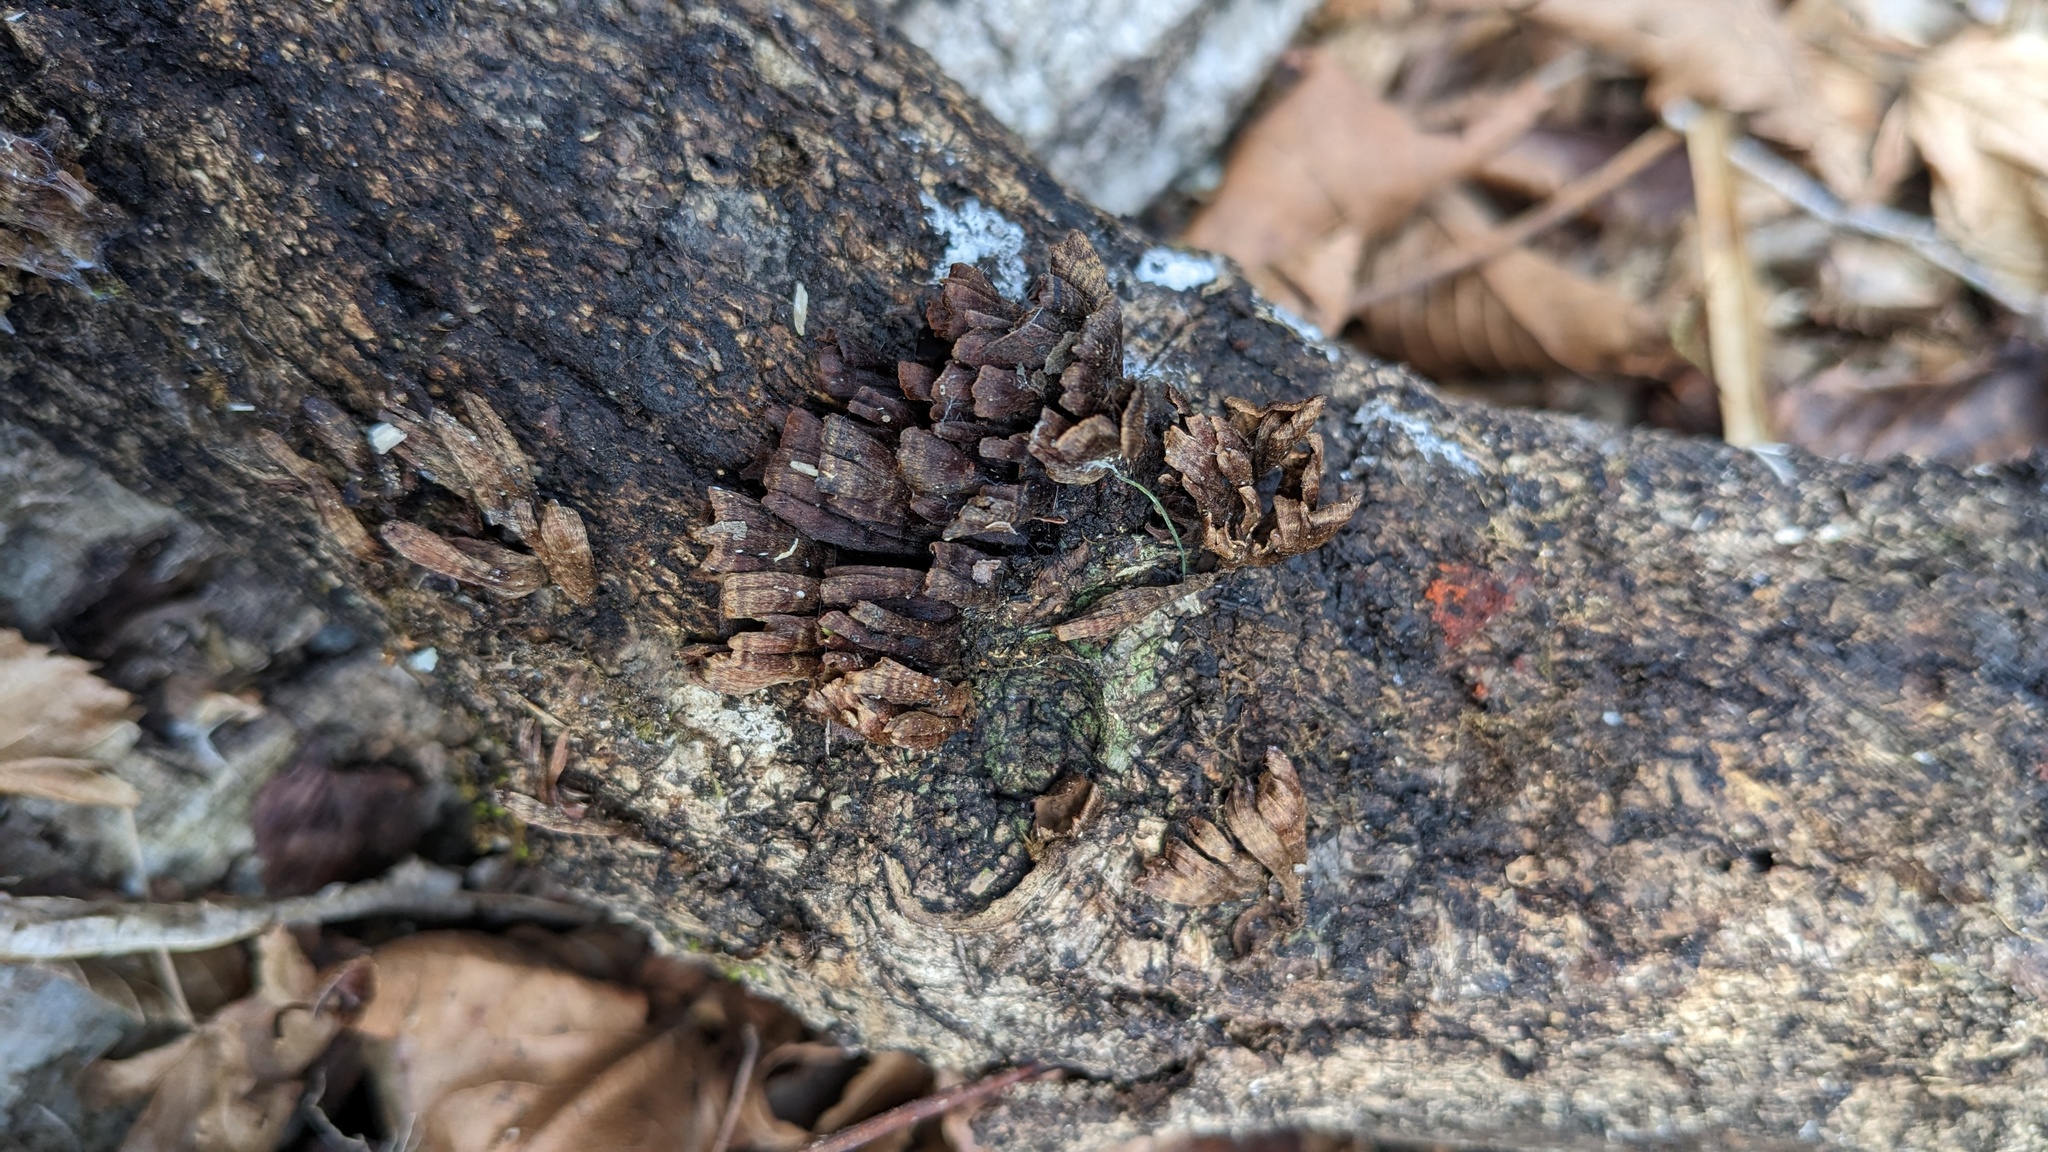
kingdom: Fungi
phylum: Basidiomycota
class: Agaricomycetes
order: Russulales
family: Stereaceae
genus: Xylobolus
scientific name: Xylobolus spectabilis
